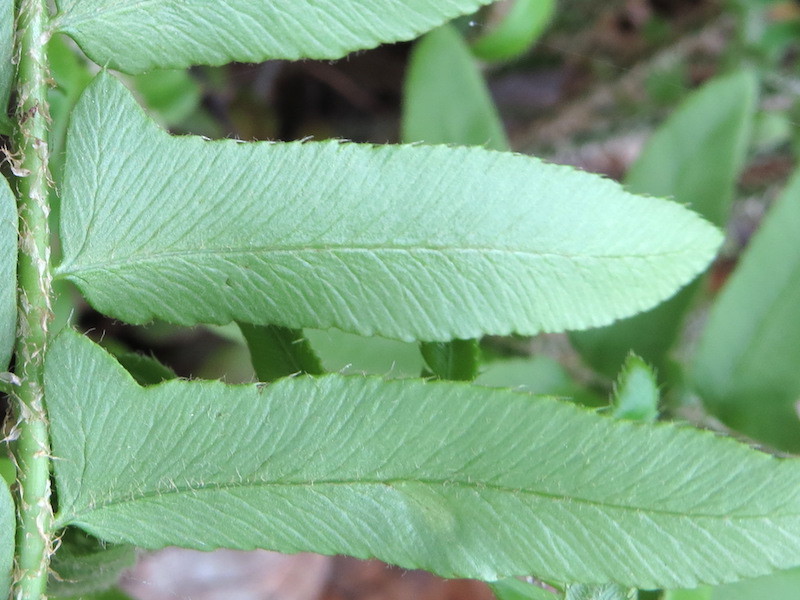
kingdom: Plantae
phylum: Tracheophyta
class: Polypodiopsida
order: Polypodiales
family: Dryopteridaceae
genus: Polystichum
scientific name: Polystichum acrostichoides
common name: Christmas fern
